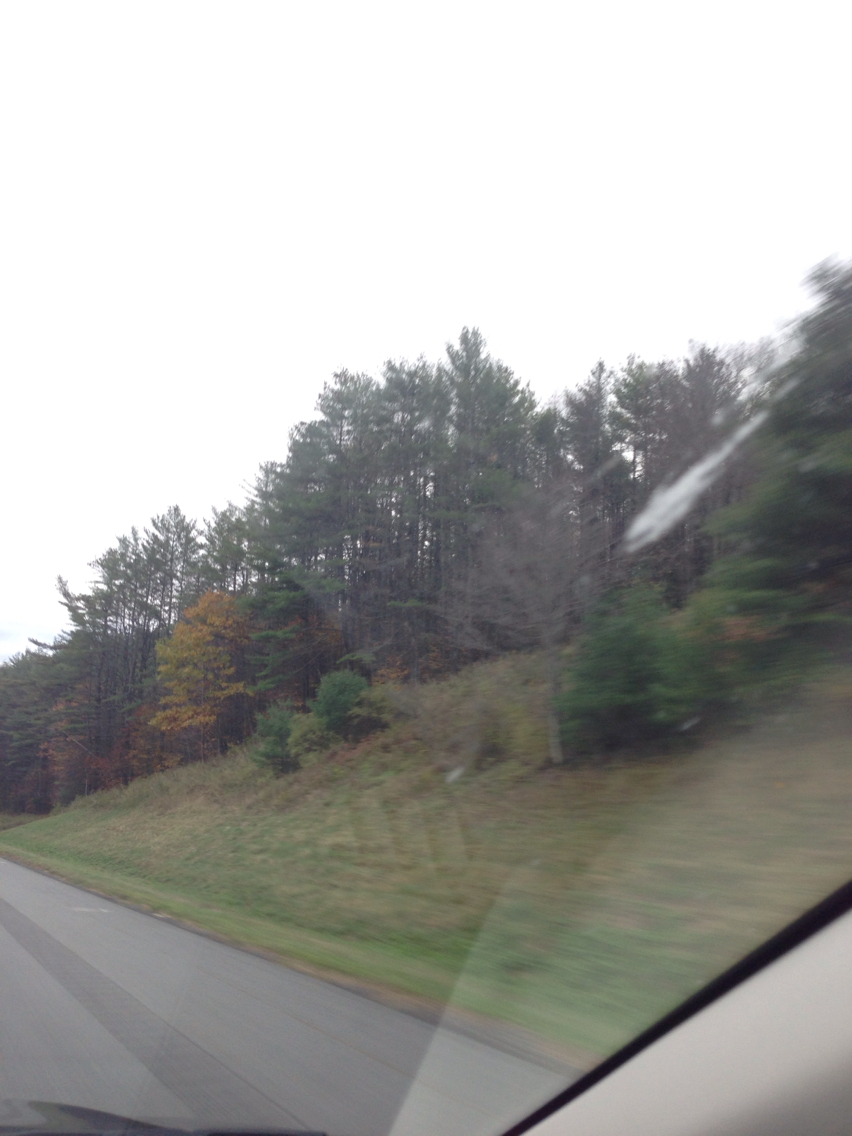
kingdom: Plantae
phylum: Tracheophyta
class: Pinopsida
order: Pinales
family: Pinaceae
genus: Pinus
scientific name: Pinus strobus
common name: Weymouth pine
